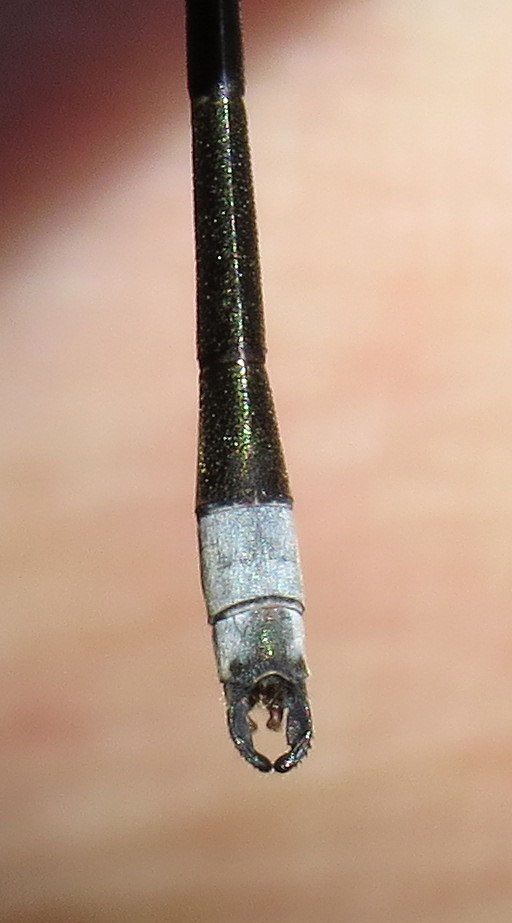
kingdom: Animalia
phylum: Arthropoda
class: Insecta
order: Odonata
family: Lestidae
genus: Lestes
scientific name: Lestes congener
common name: Spotted spreadwing
